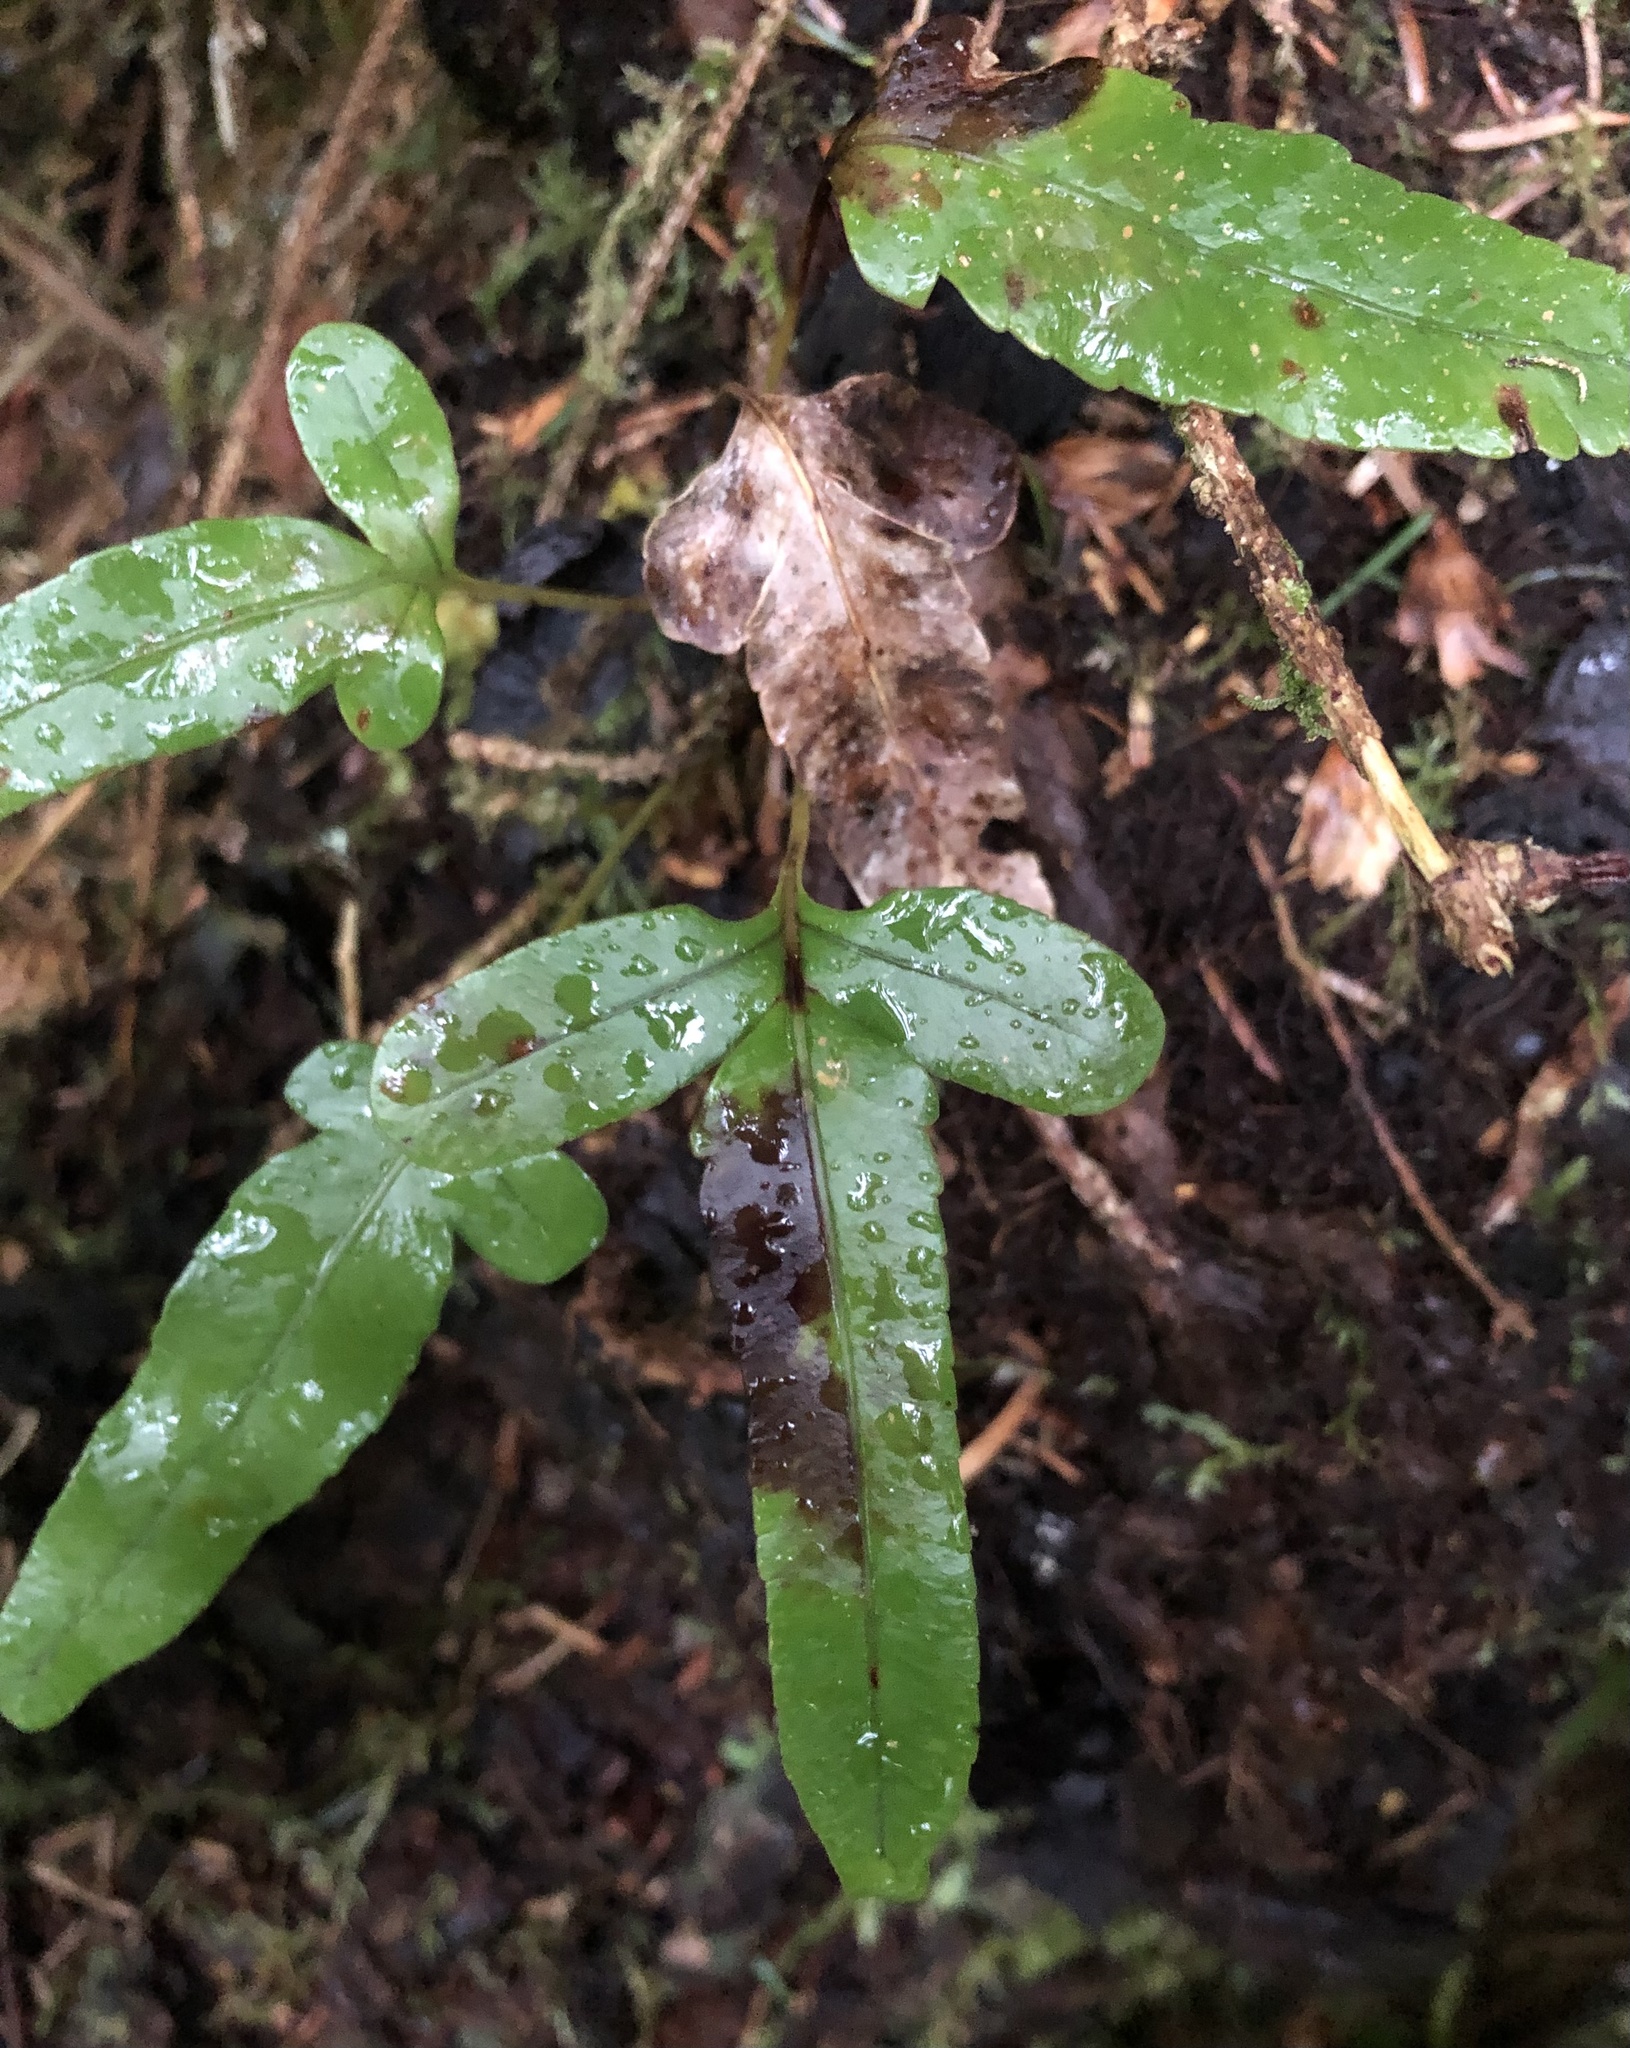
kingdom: Plantae
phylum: Tracheophyta
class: Polypodiopsida
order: Polypodiales
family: Polypodiaceae
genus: Polypodium
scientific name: Polypodium scouleri
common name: Scouler's polypody
